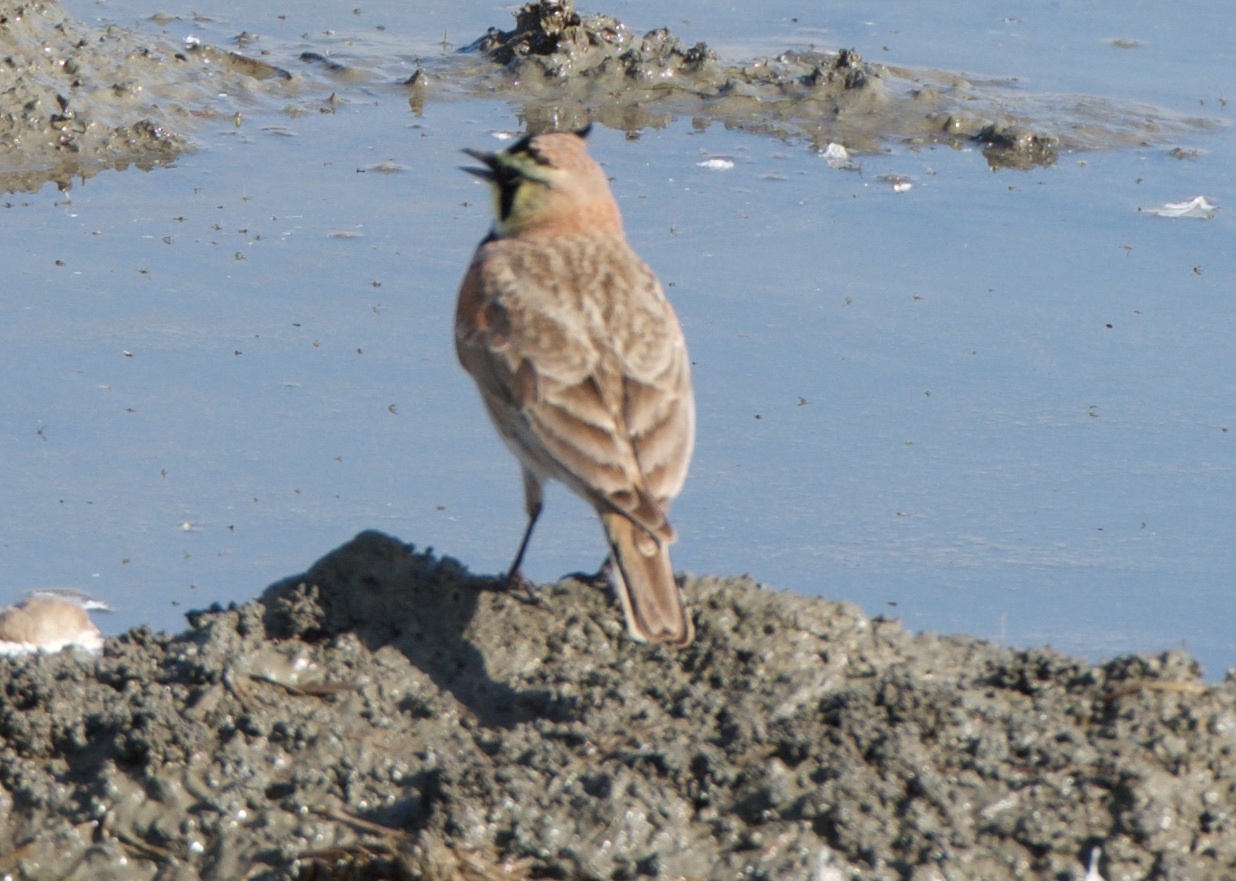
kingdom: Animalia
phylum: Chordata
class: Aves
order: Passeriformes
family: Alaudidae
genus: Eremophila
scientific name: Eremophila alpestris
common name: Horned lark
